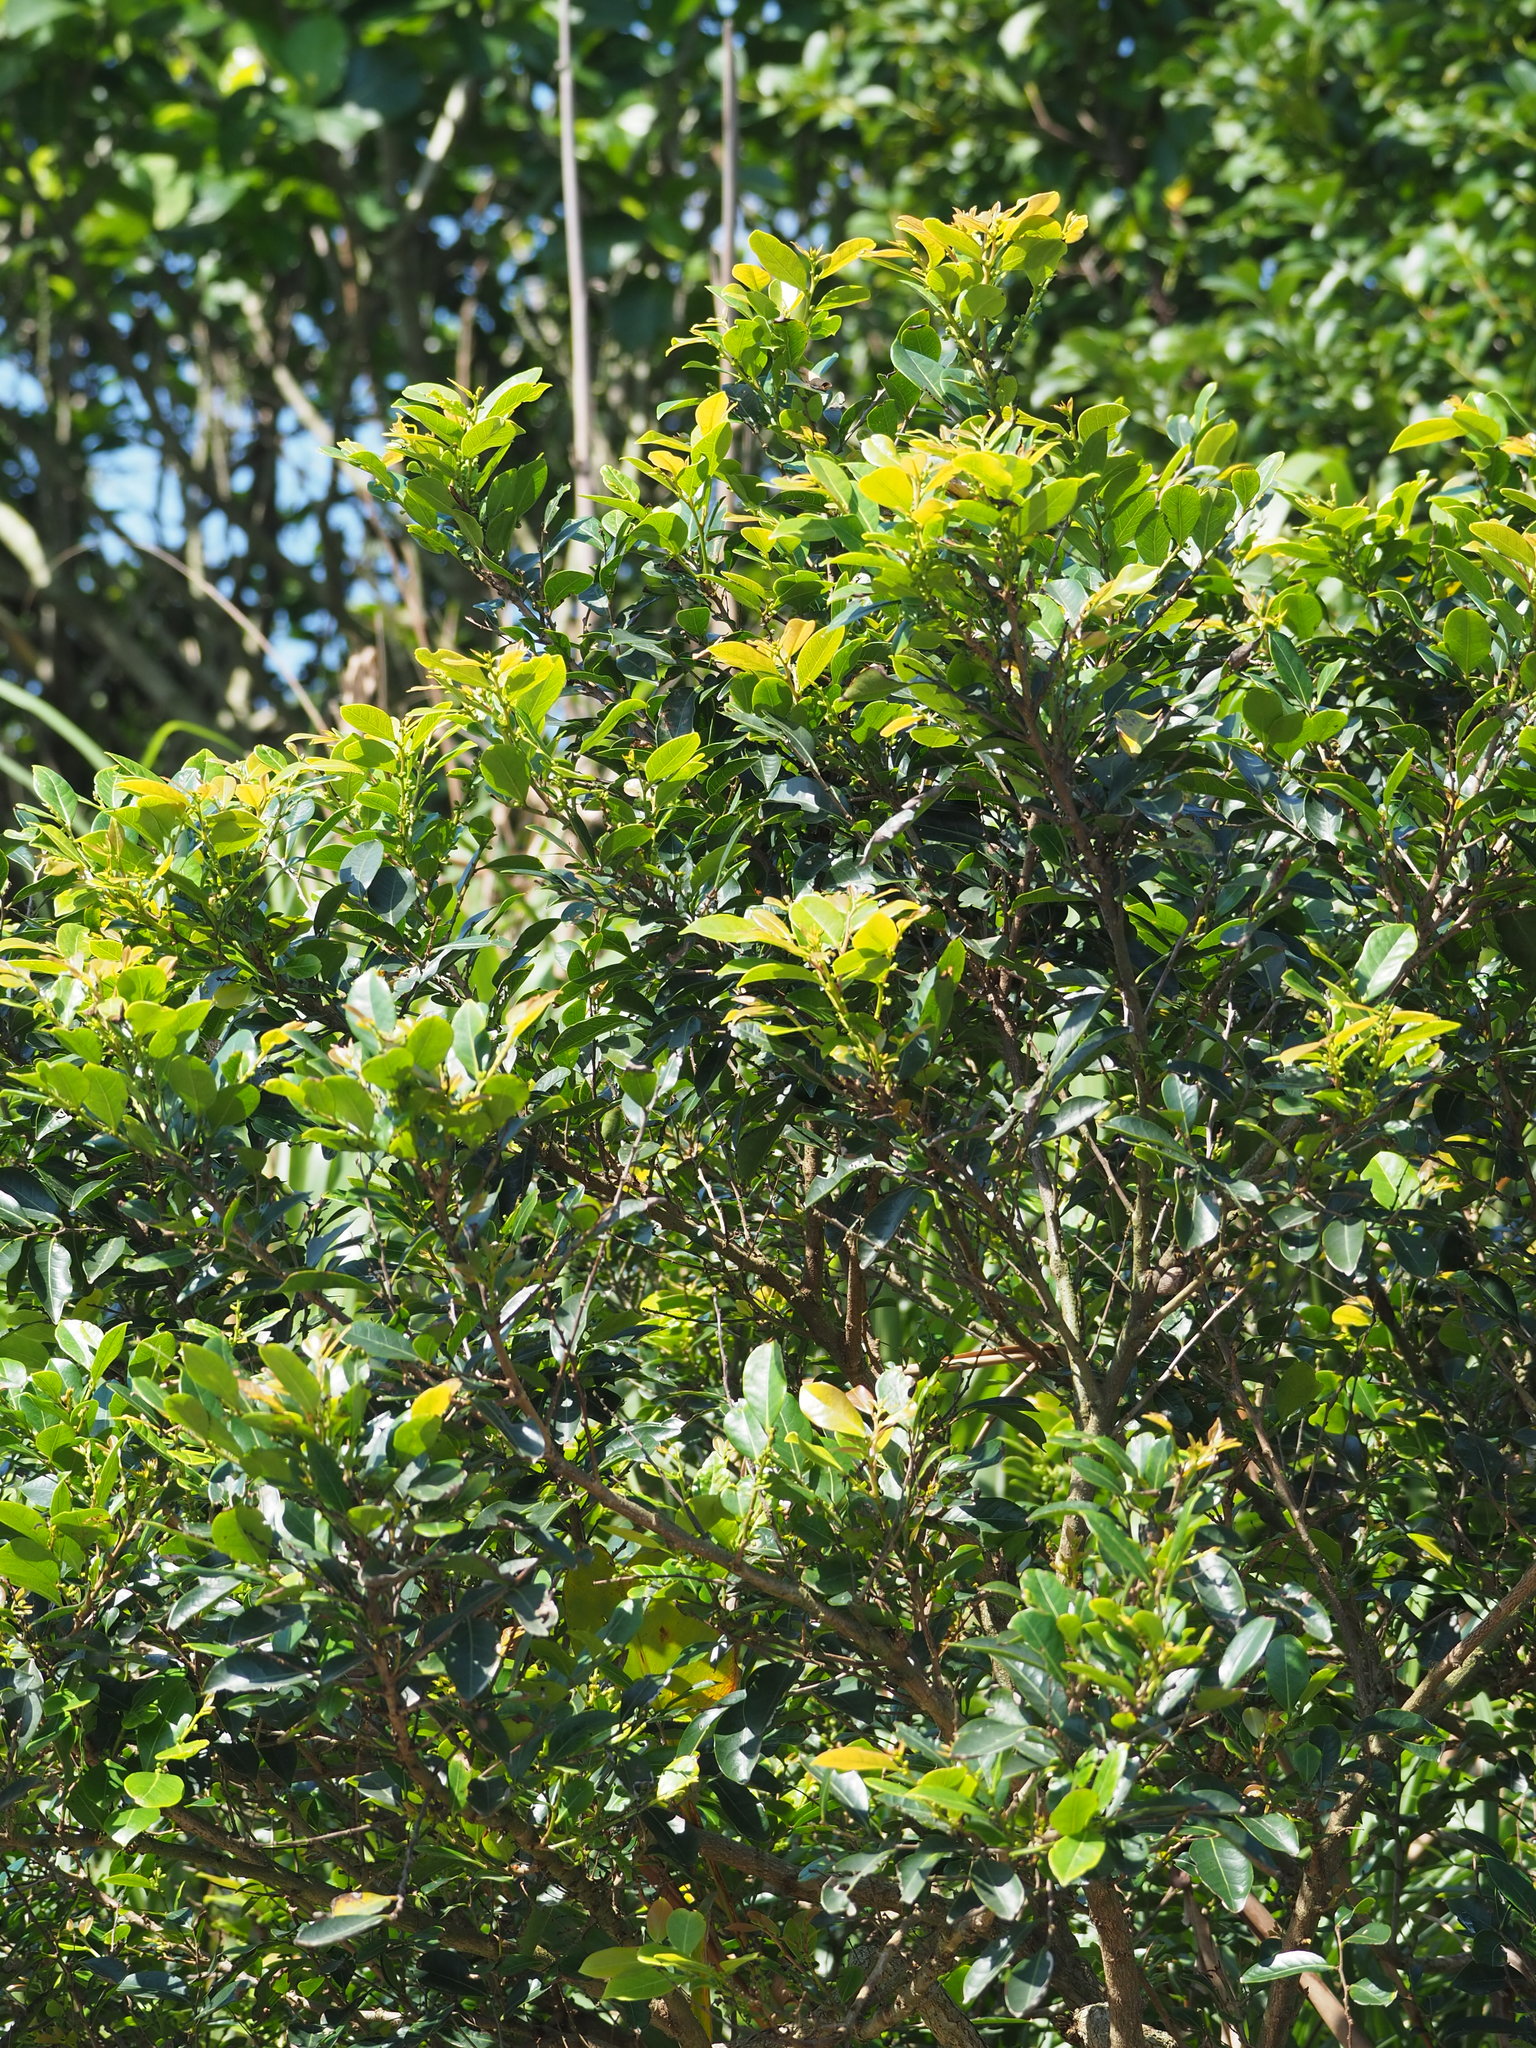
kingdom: Plantae
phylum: Tracheophyta
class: Magnoliopsida
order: Malpighiales
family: Phyllanthaceae
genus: Glochidion
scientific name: Glochidion rubrum
